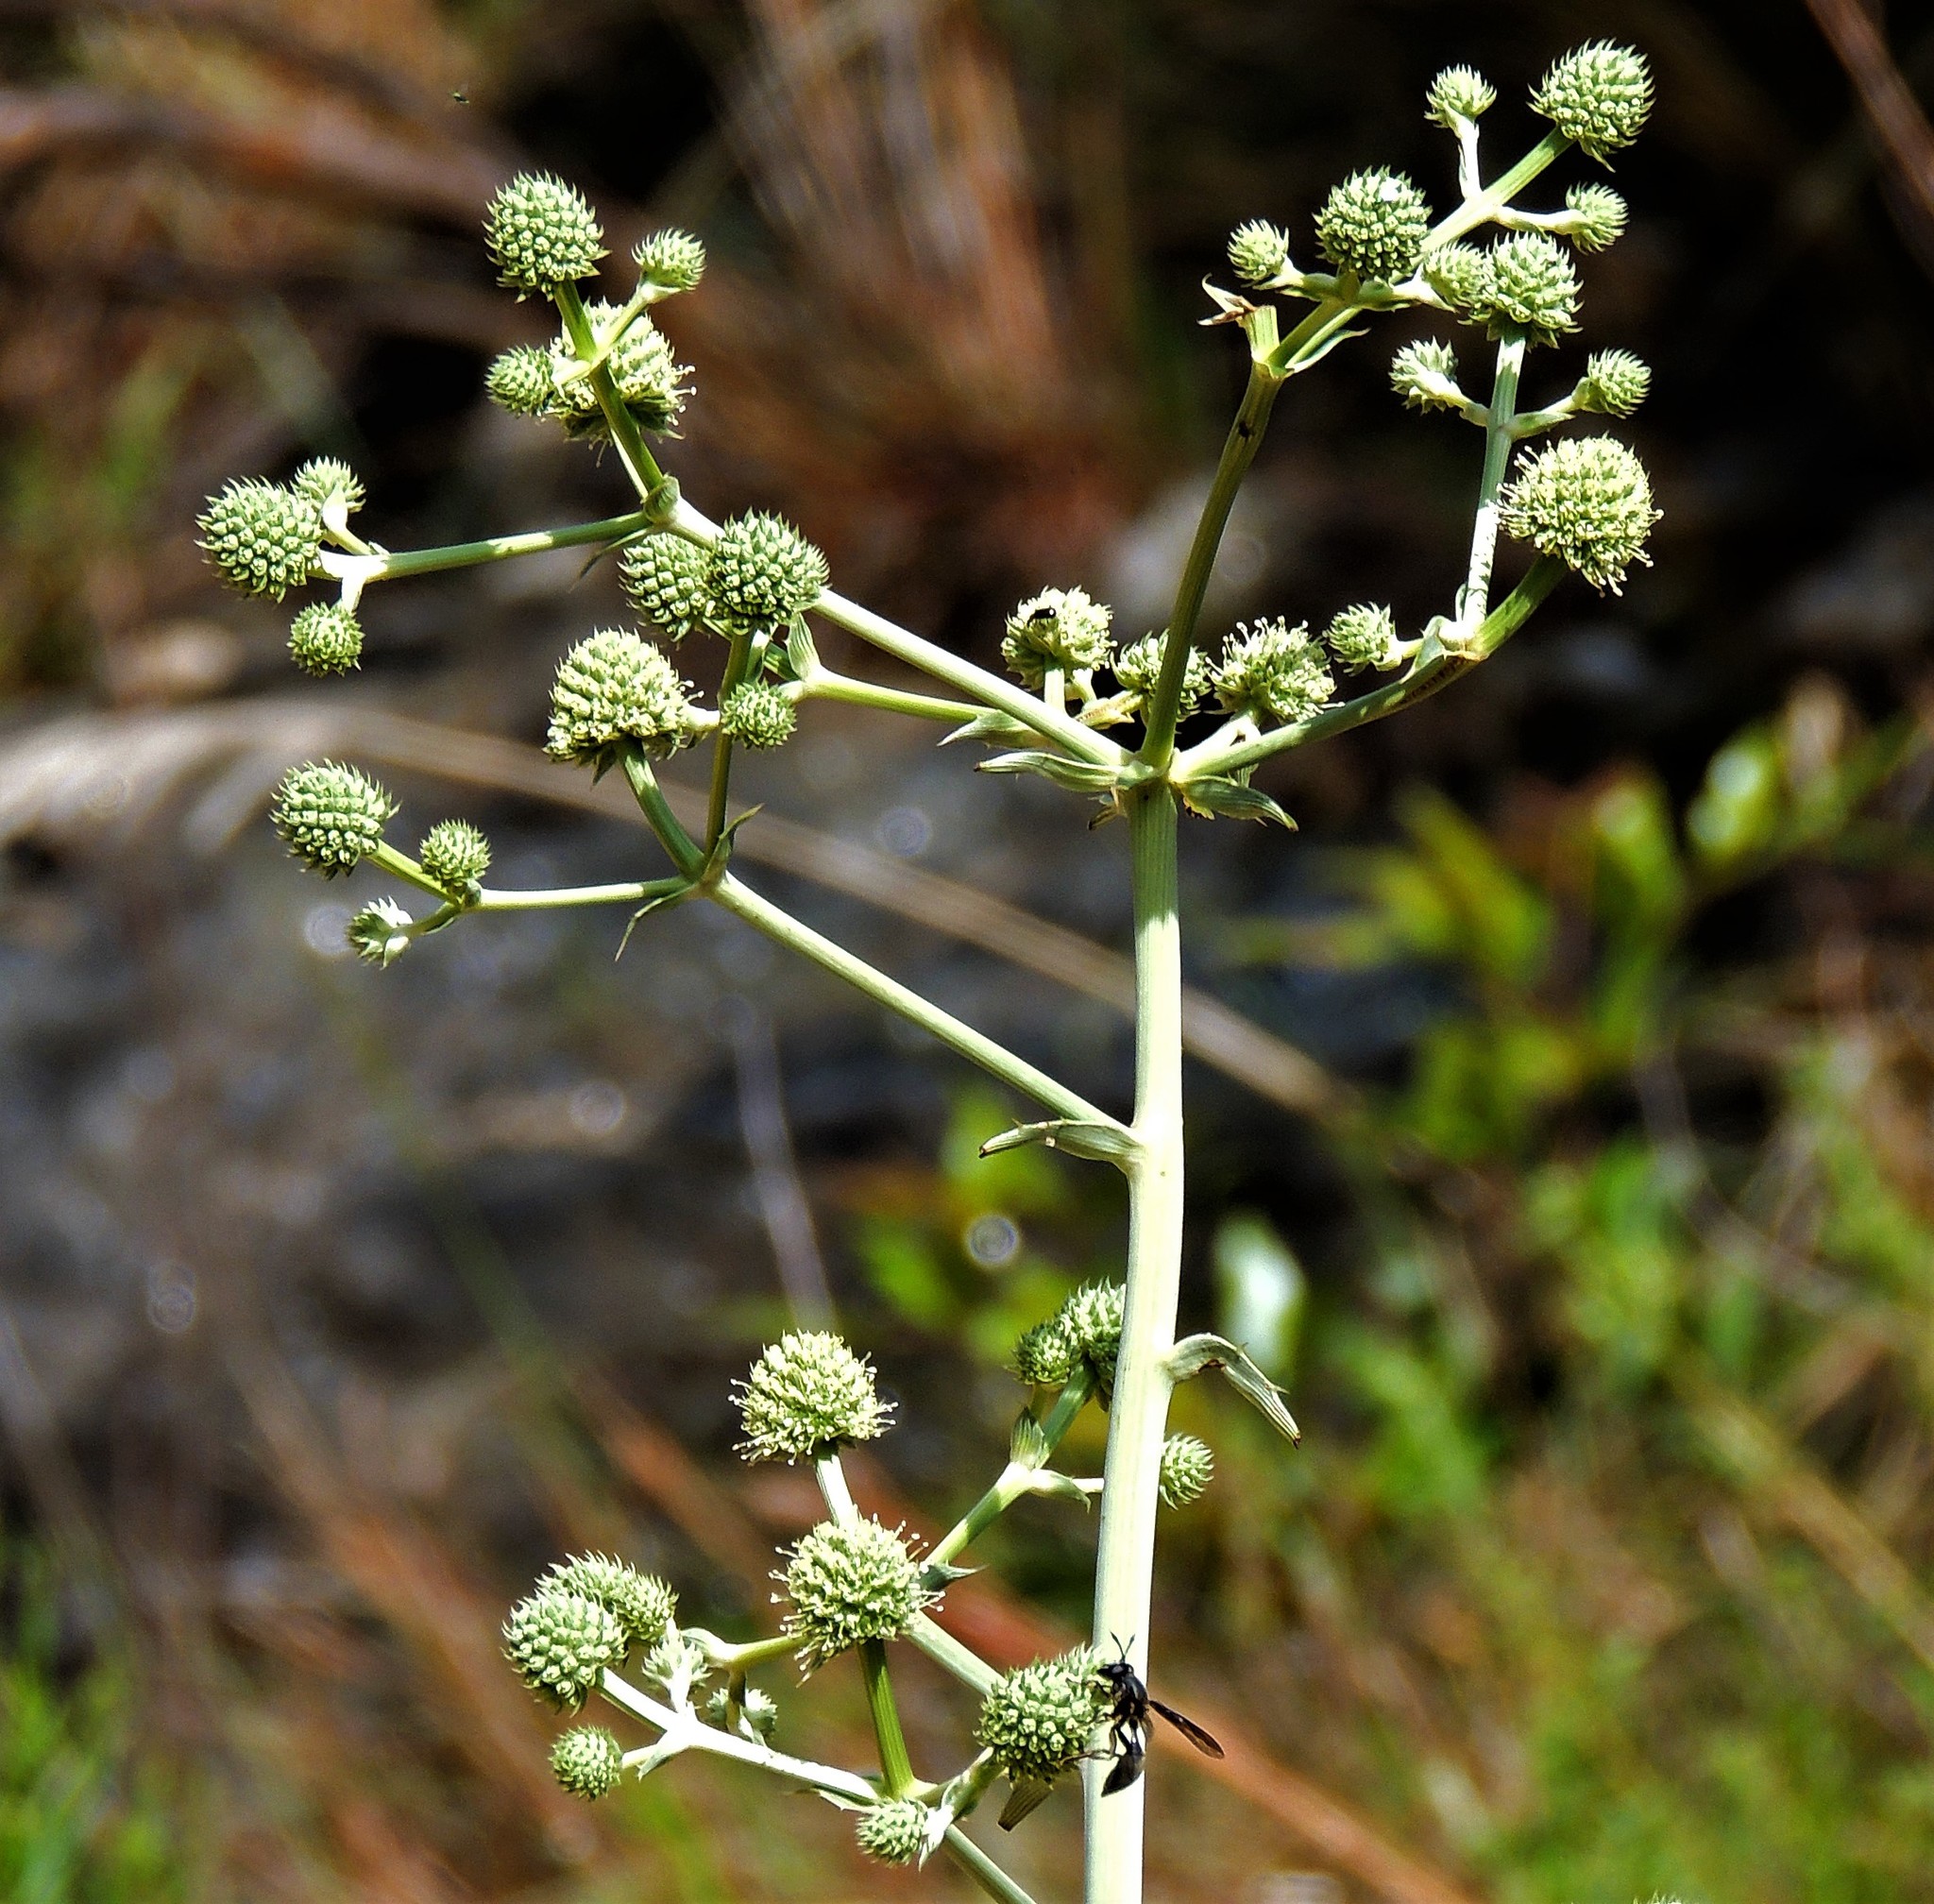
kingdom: Plantae
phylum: Tracheophyta
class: Magnoliopsida
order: Apiales
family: Apiaceae
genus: Eryngium
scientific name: Eryngium horridum
